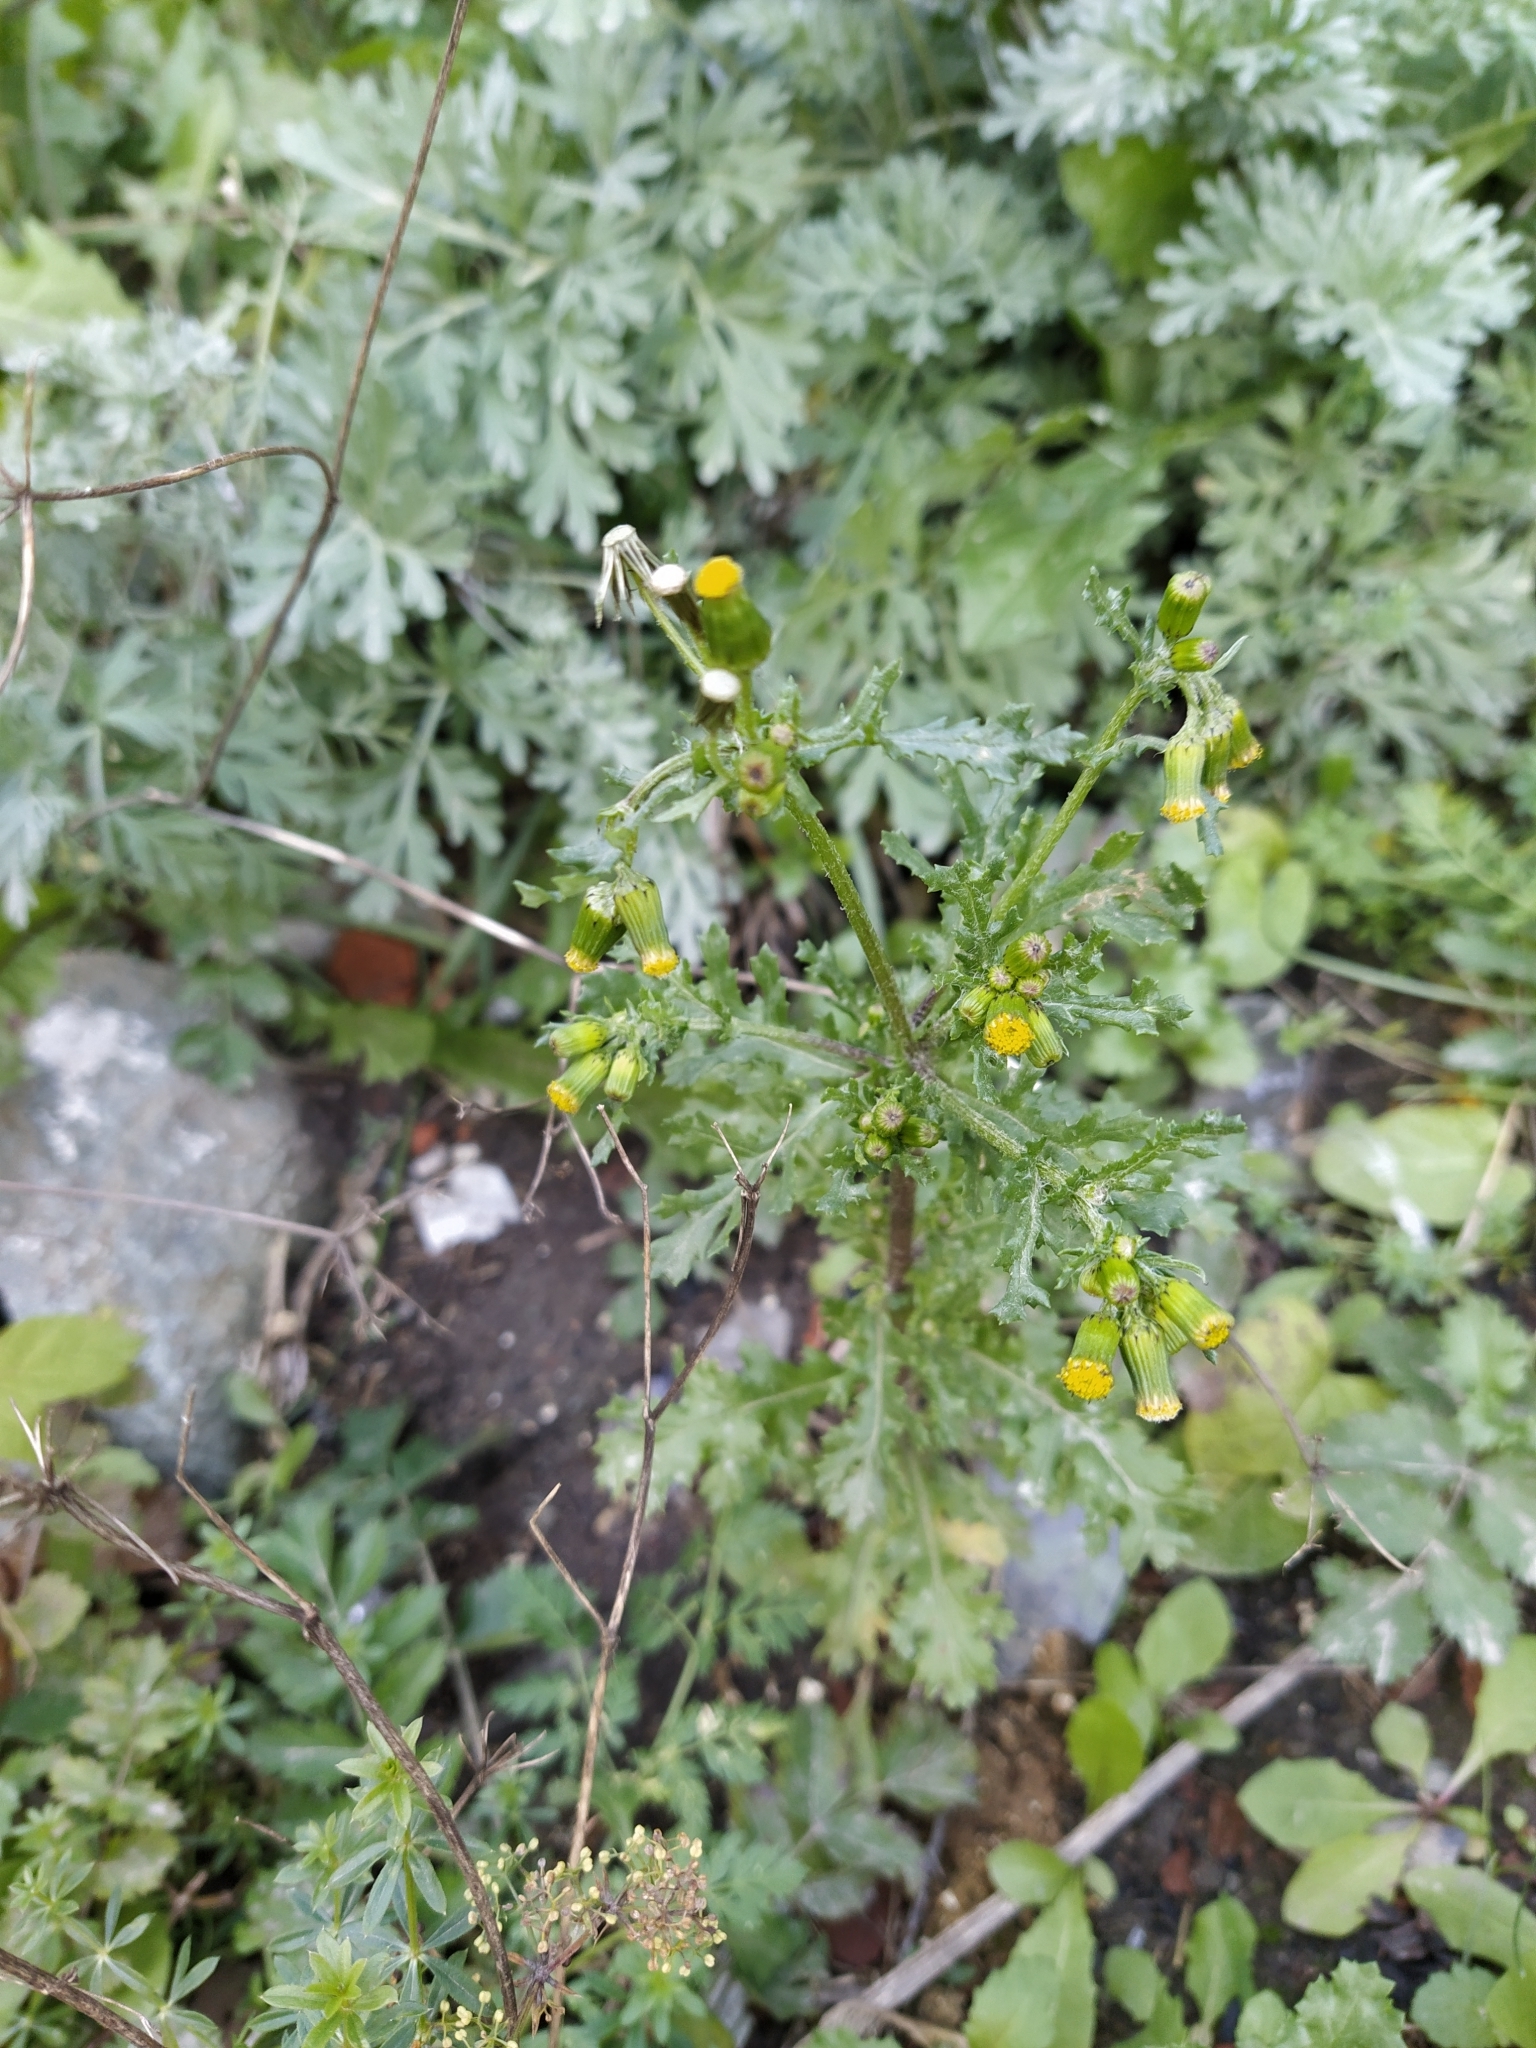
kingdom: Plantae
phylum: Tracheophyta
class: Magnoliopsida
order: Asterales
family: Asteraceae
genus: Senecio
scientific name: Senecio vulgaris
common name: Old-man-in-the-spring
